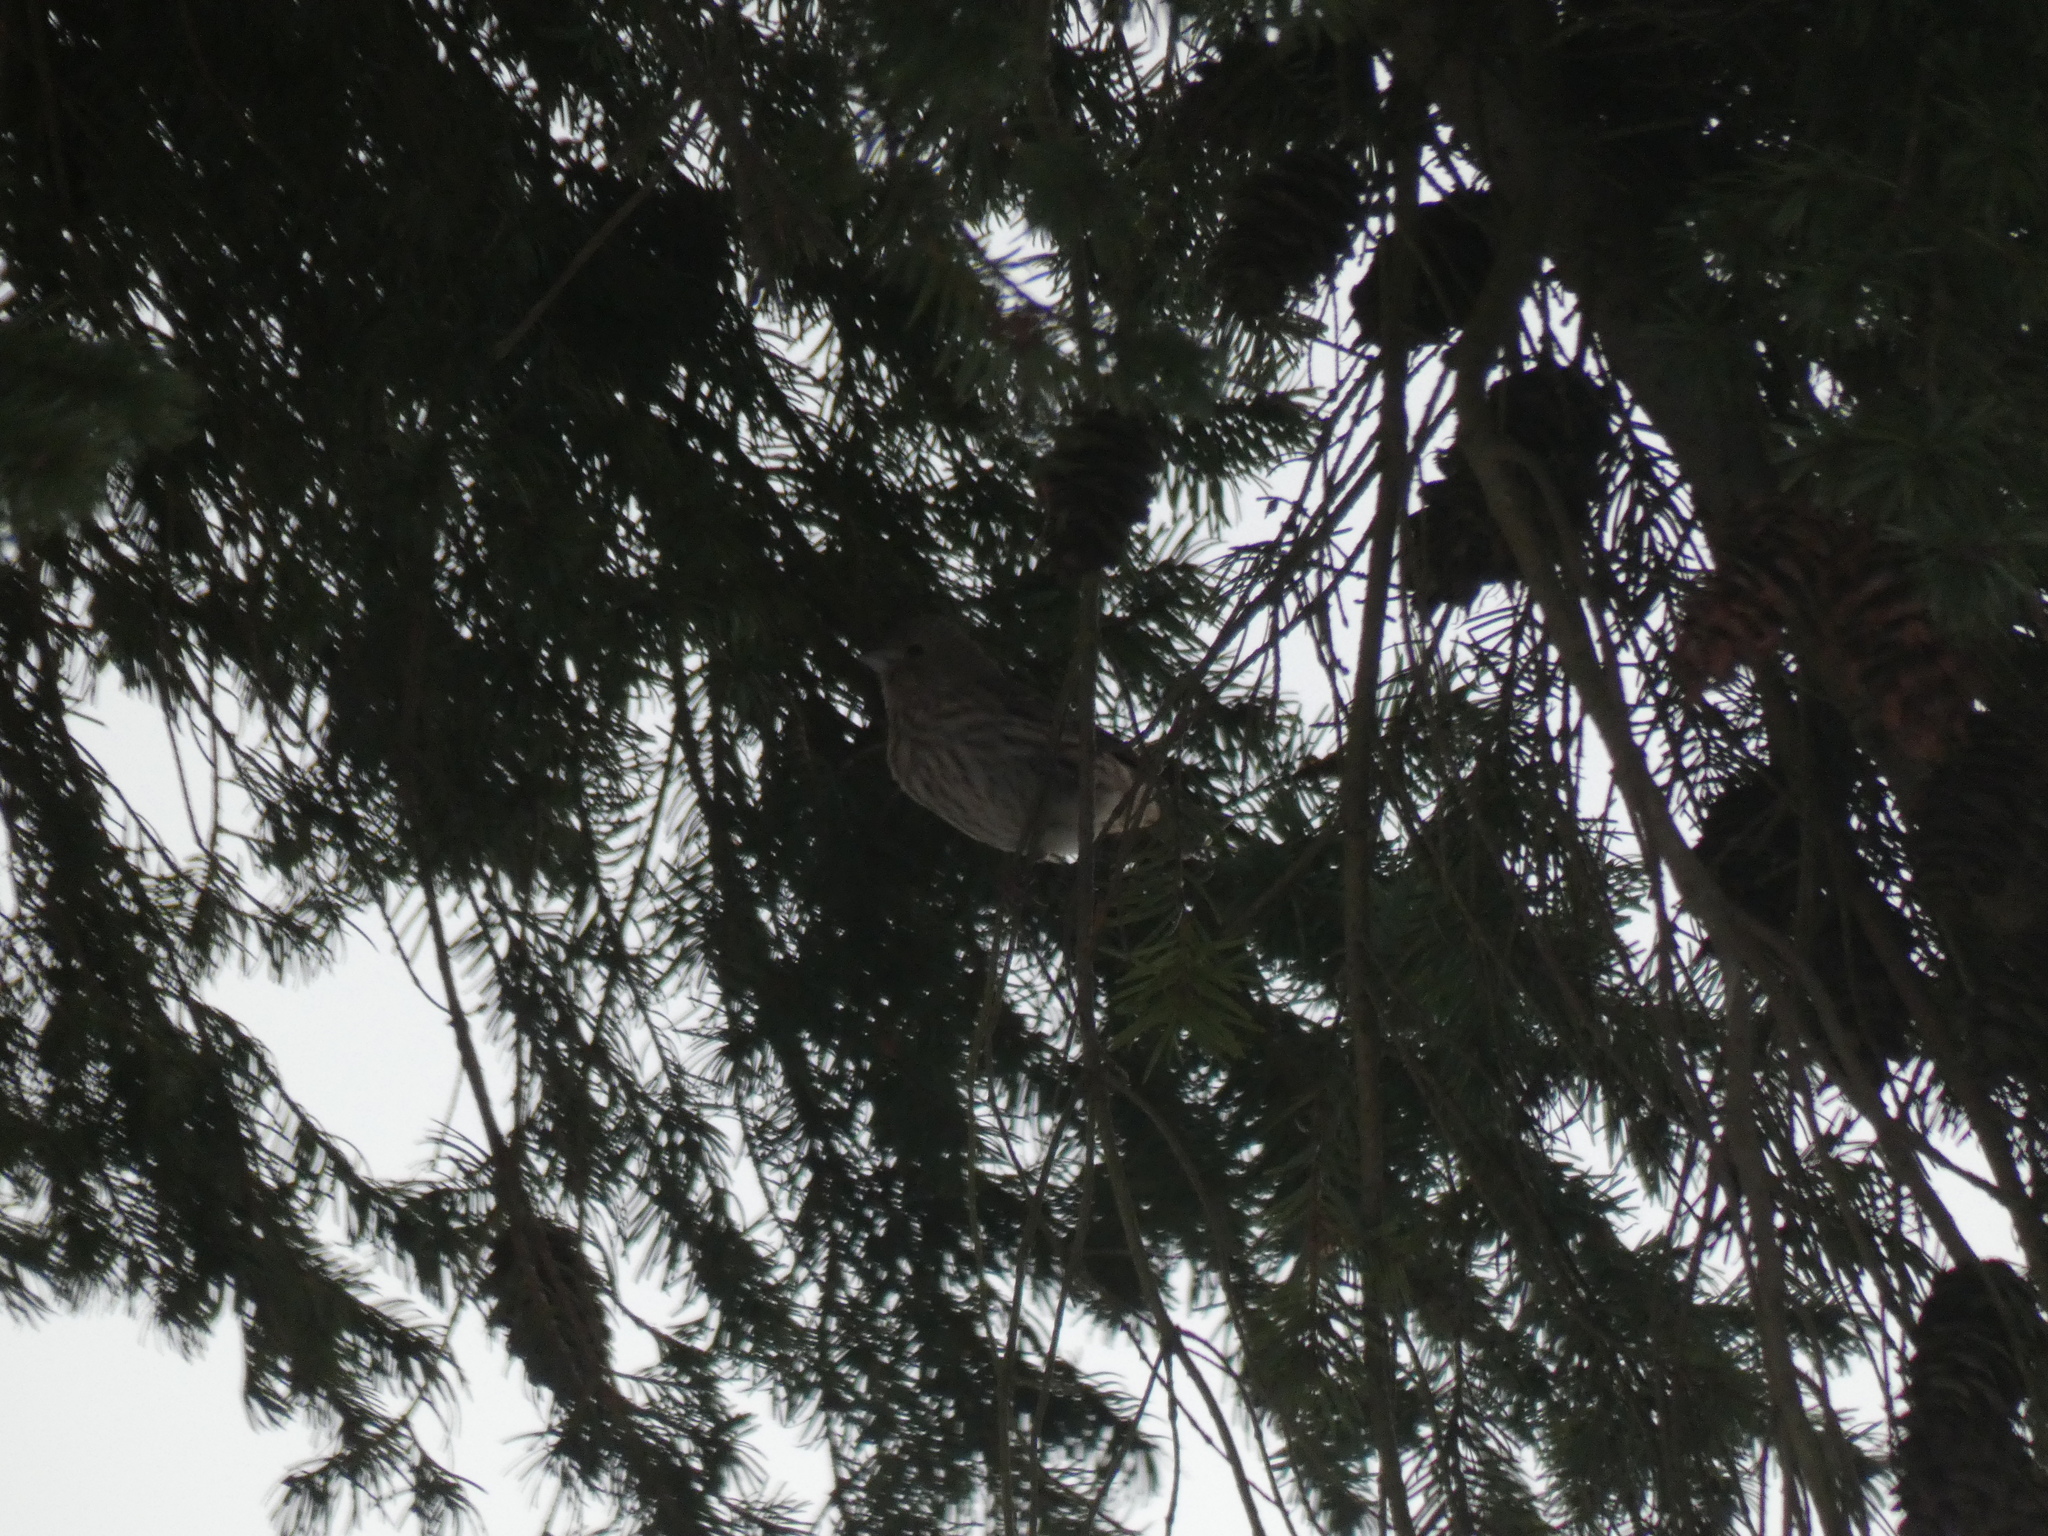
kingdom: Animalia
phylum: Chordata
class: Aves
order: Passeriformes
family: Fringillidae
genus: Haemorhous
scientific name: Haemorhous mexicanus
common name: House finch
